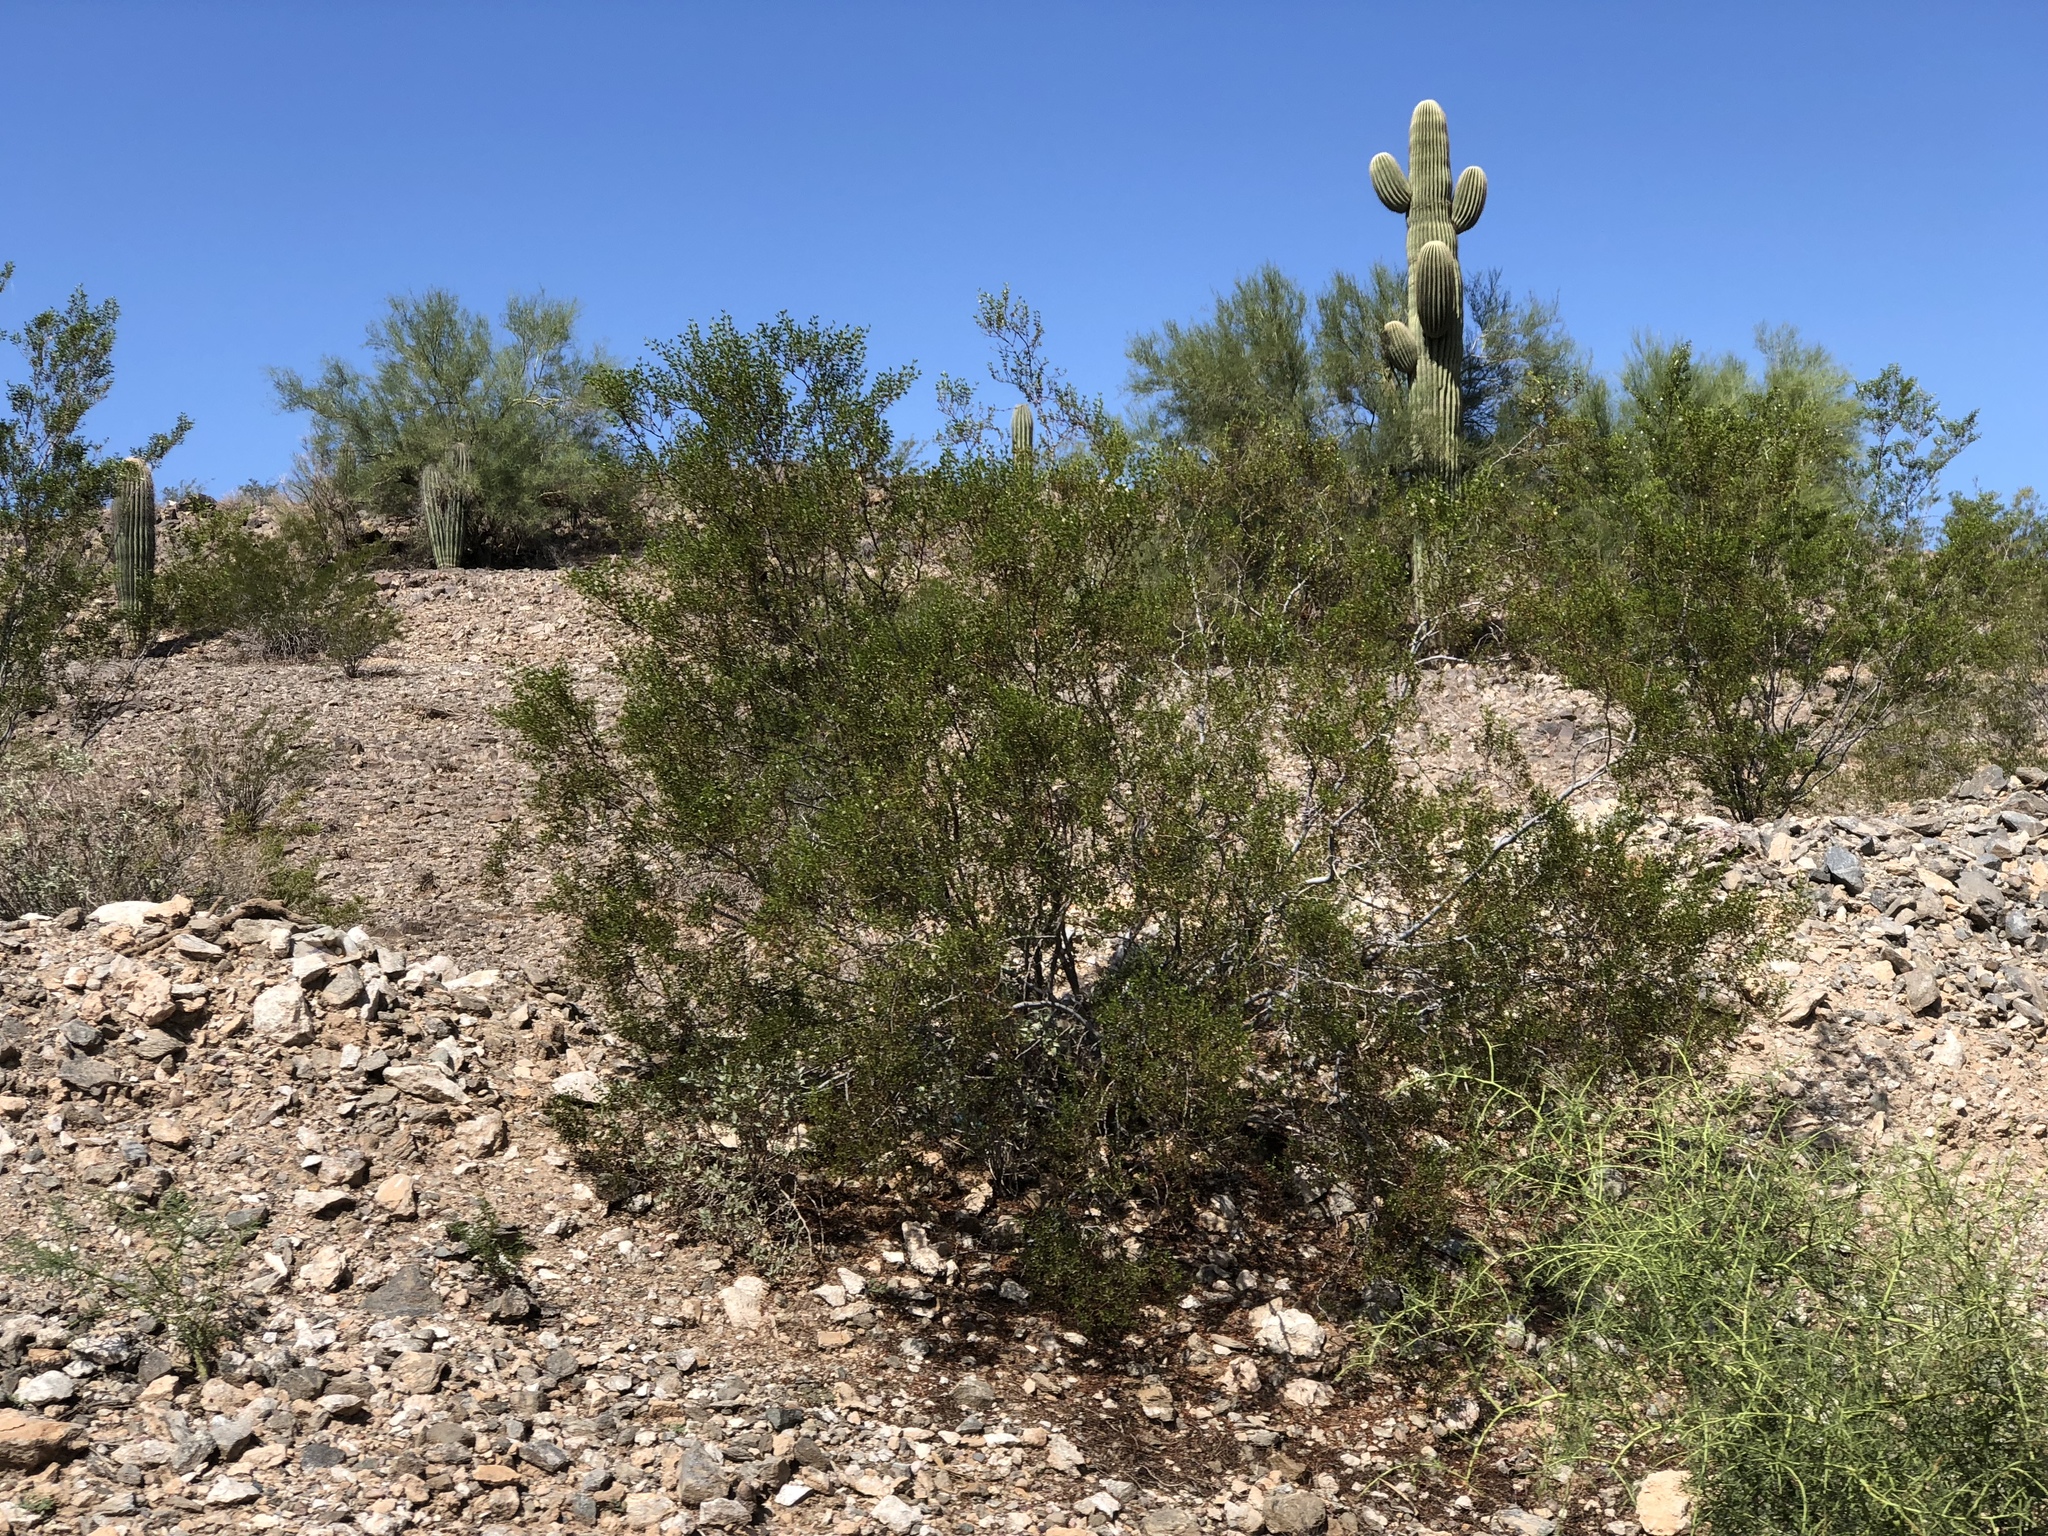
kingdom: Plantae
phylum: Tracheophyta
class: Magnoliopsida
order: Zygophyllales
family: Zygophyllaceae
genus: Larrea
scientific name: Larrea tridentata
